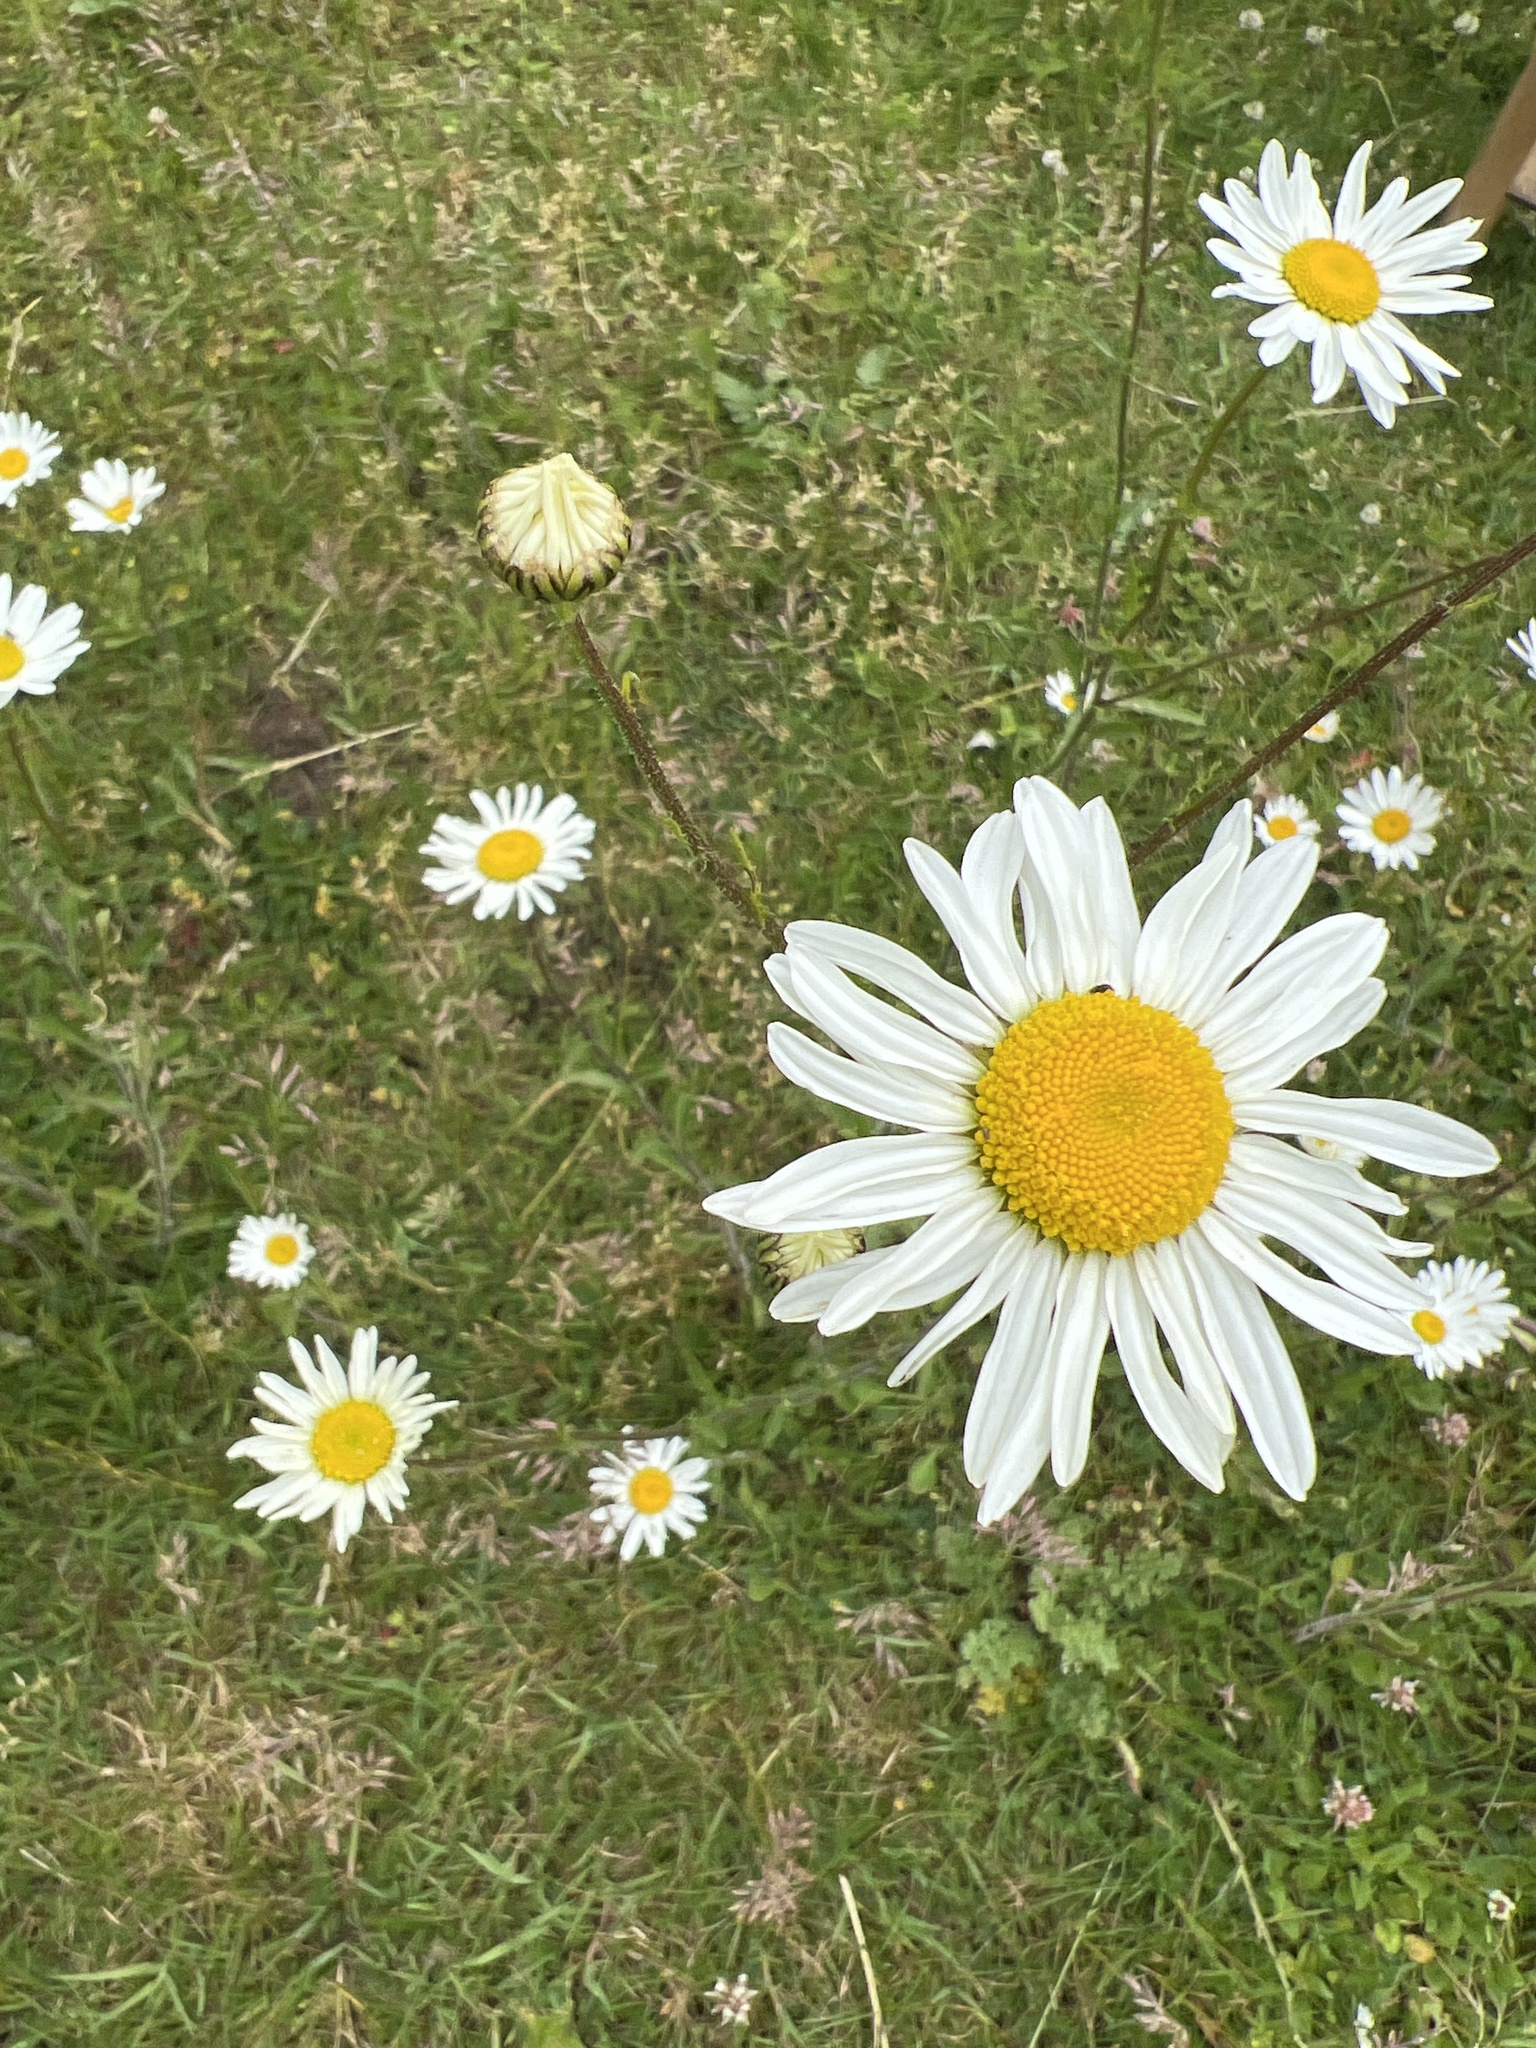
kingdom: Plantae
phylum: Tracheophyta
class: Magnoliopsida
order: Asterales
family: Asteraceae
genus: Leucanthemum
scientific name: Leucanthemum vulgare
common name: Oxeye daisy
